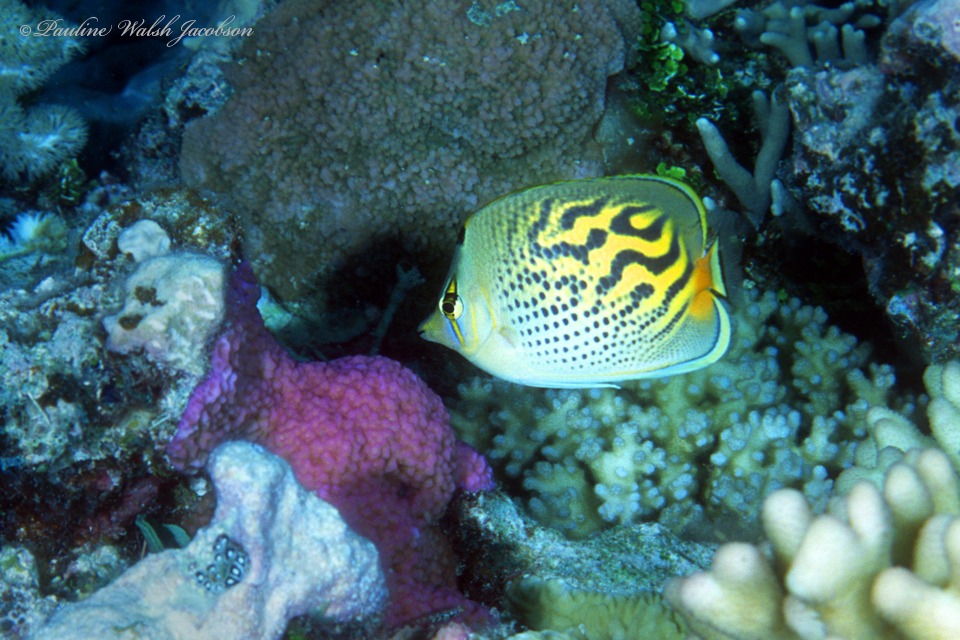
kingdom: Animalia
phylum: Chordata
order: Perciformes
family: Chaetodontidae
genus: Chaetodon
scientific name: Chaetodon
